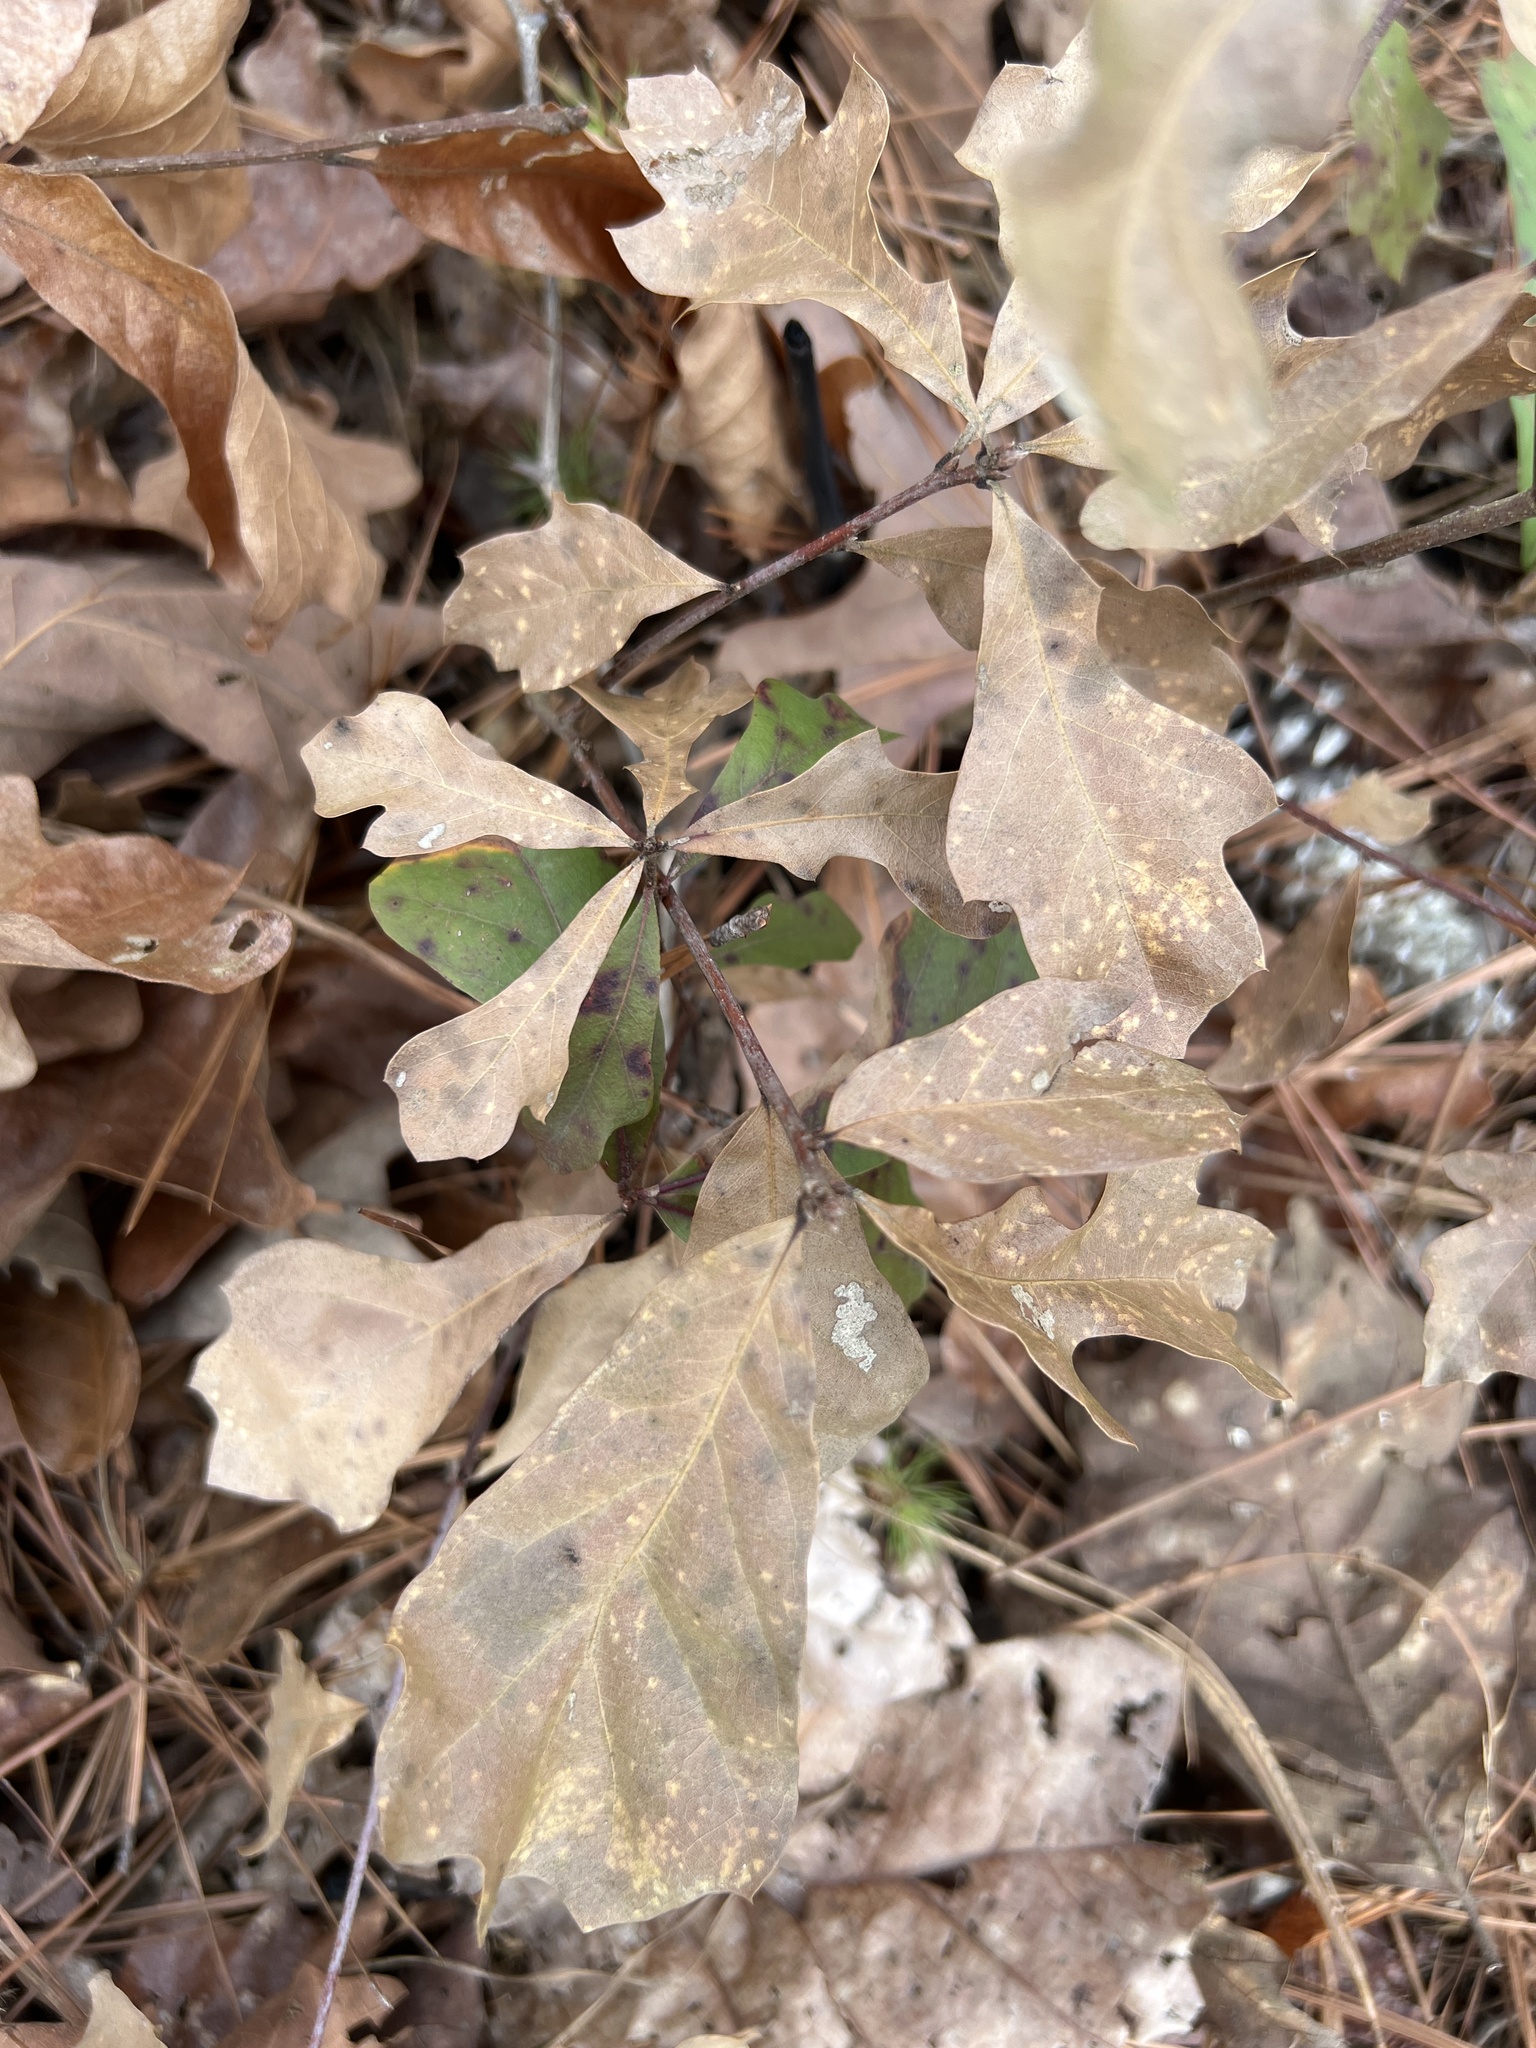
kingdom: Plantae
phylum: Tracheophyta
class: Magnoliopsida
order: Fagales
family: Fagaceae
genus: Quercus
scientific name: Quercus nigra
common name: Water oak
